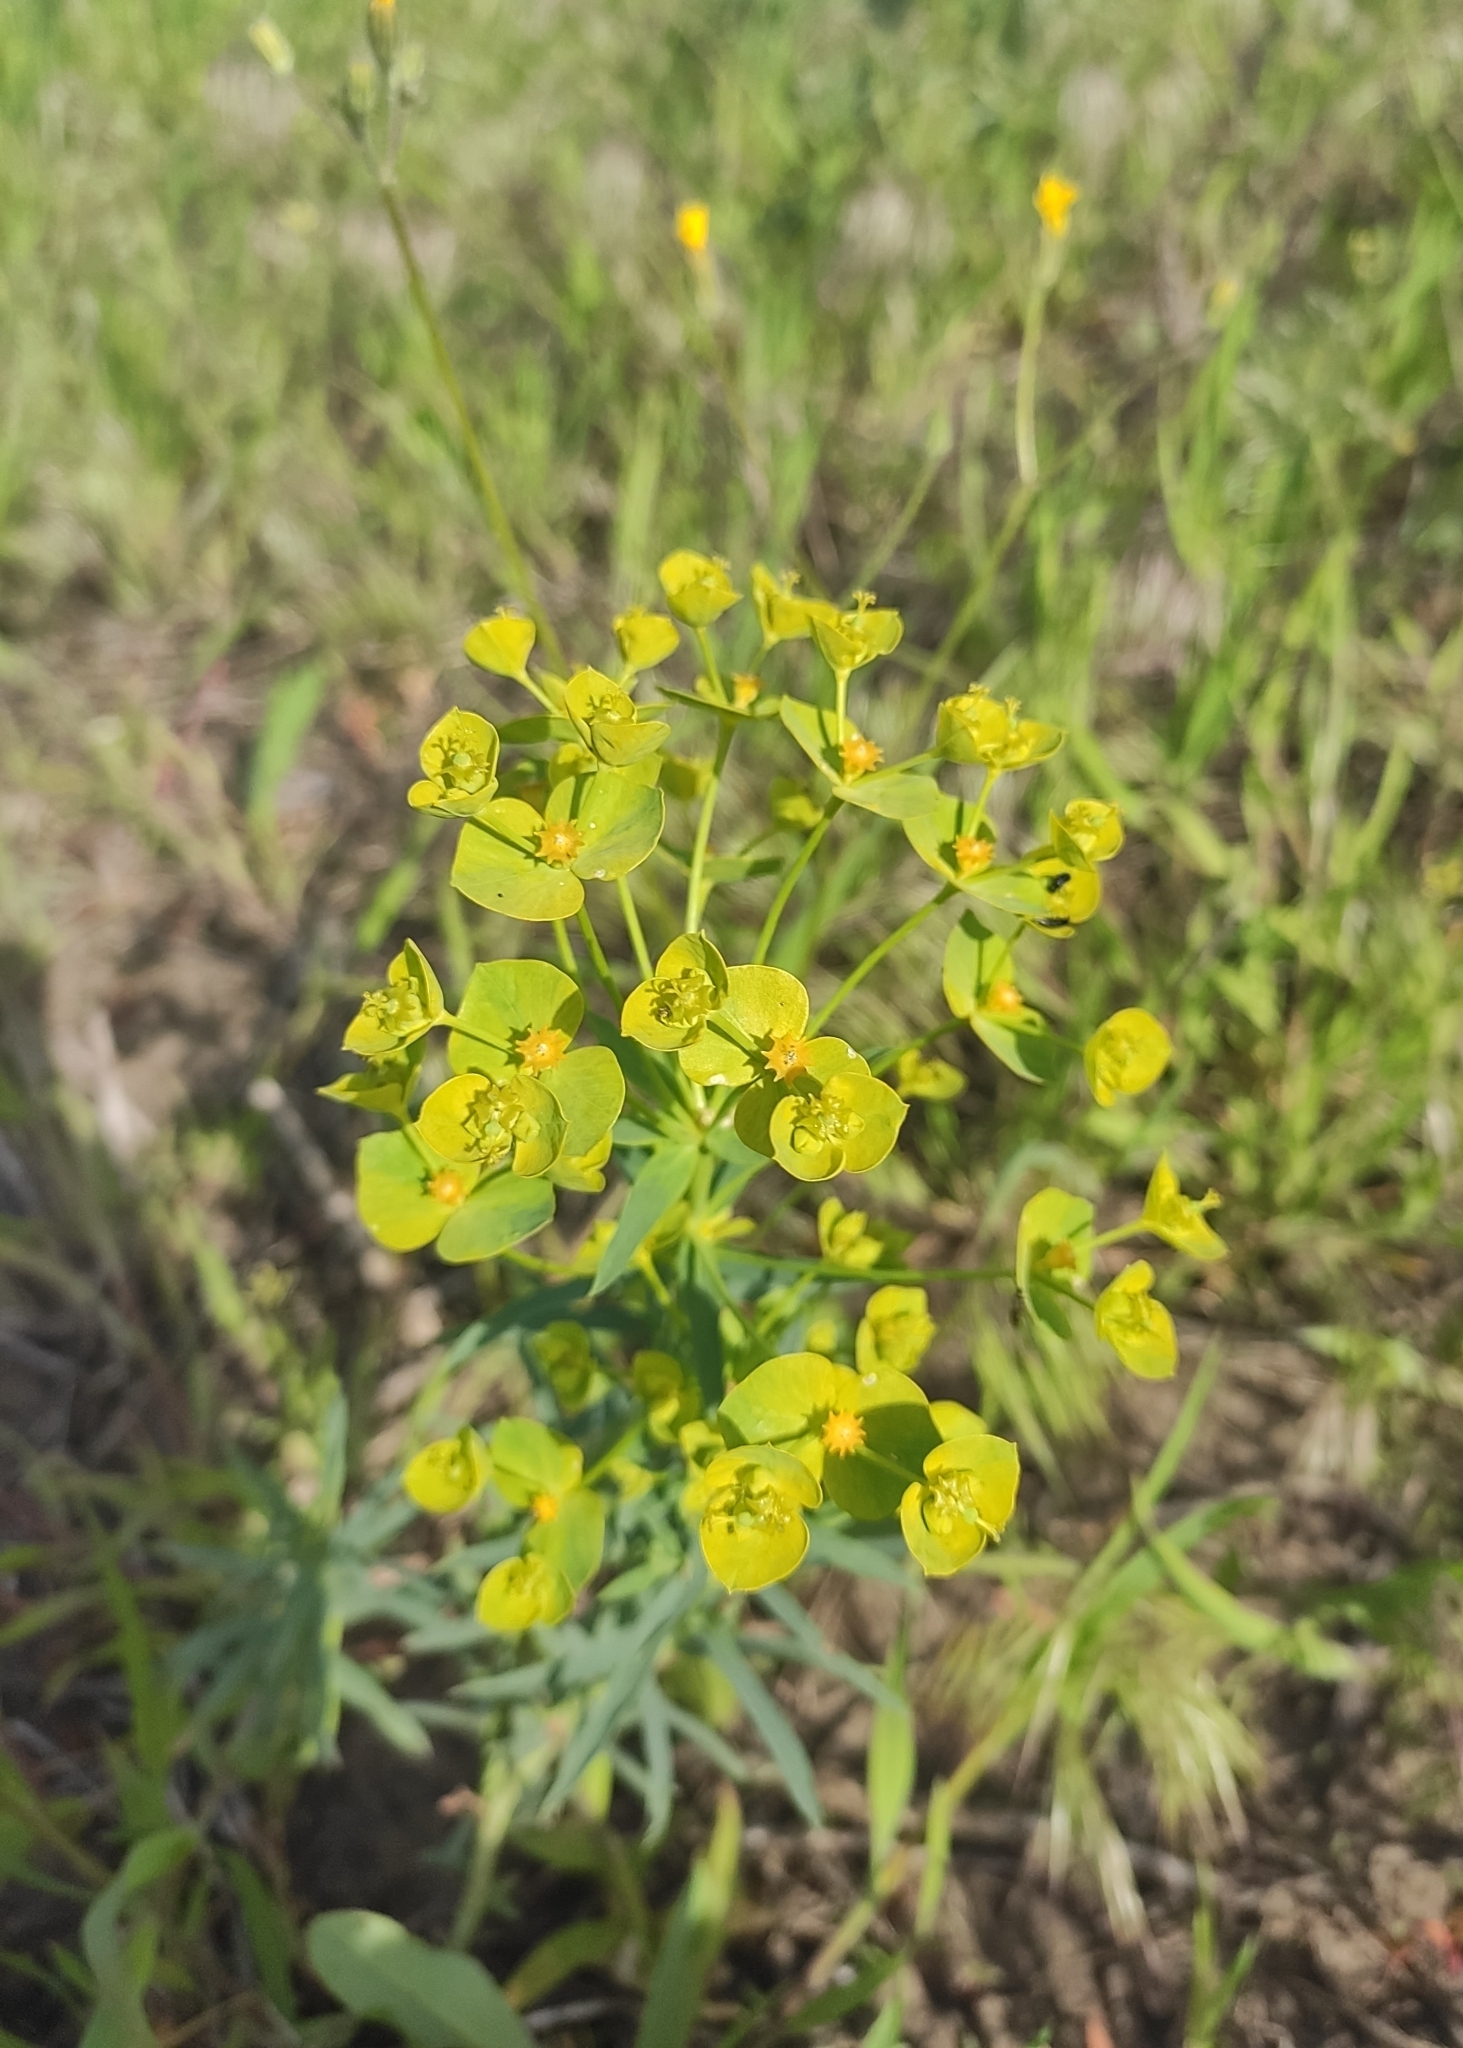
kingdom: Plantae
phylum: Tracheophyta
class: Magnoliopsida
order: Malpighiales
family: Euphorbiaceae
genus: Euphorbia
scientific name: Euphorbia virgata
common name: Leafy spurge
